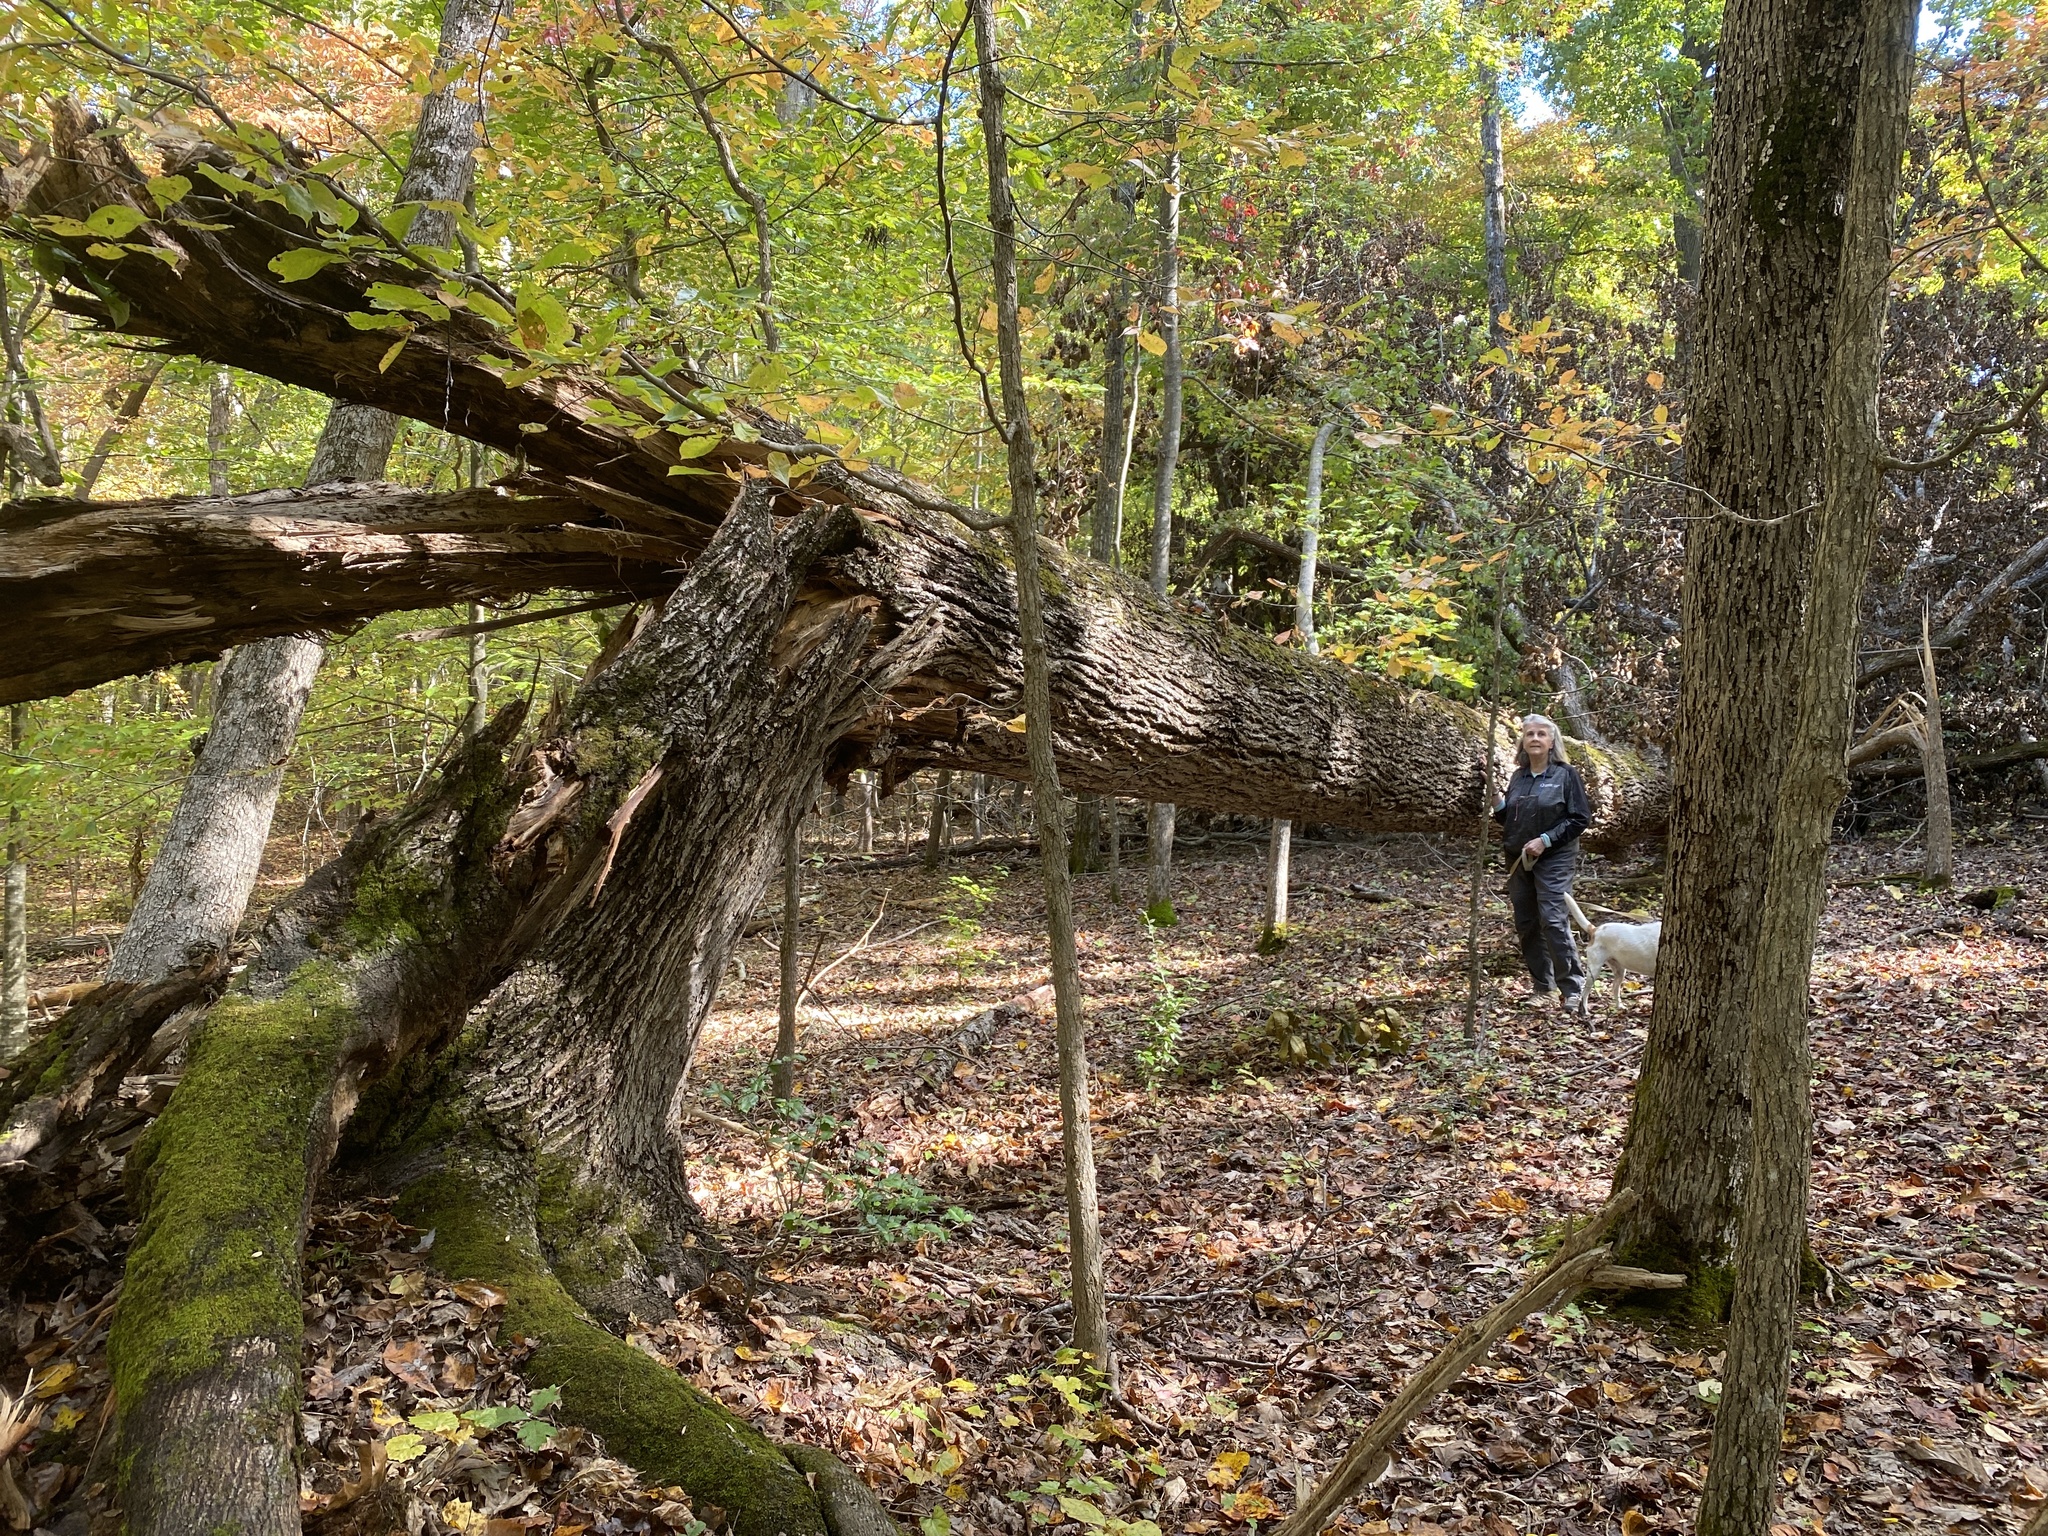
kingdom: Plantae
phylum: Tracheophyta
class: Magnoliopsida
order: Fagales
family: Juglandaceae
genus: Carya
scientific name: Carya glabra
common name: Pignut hickory
